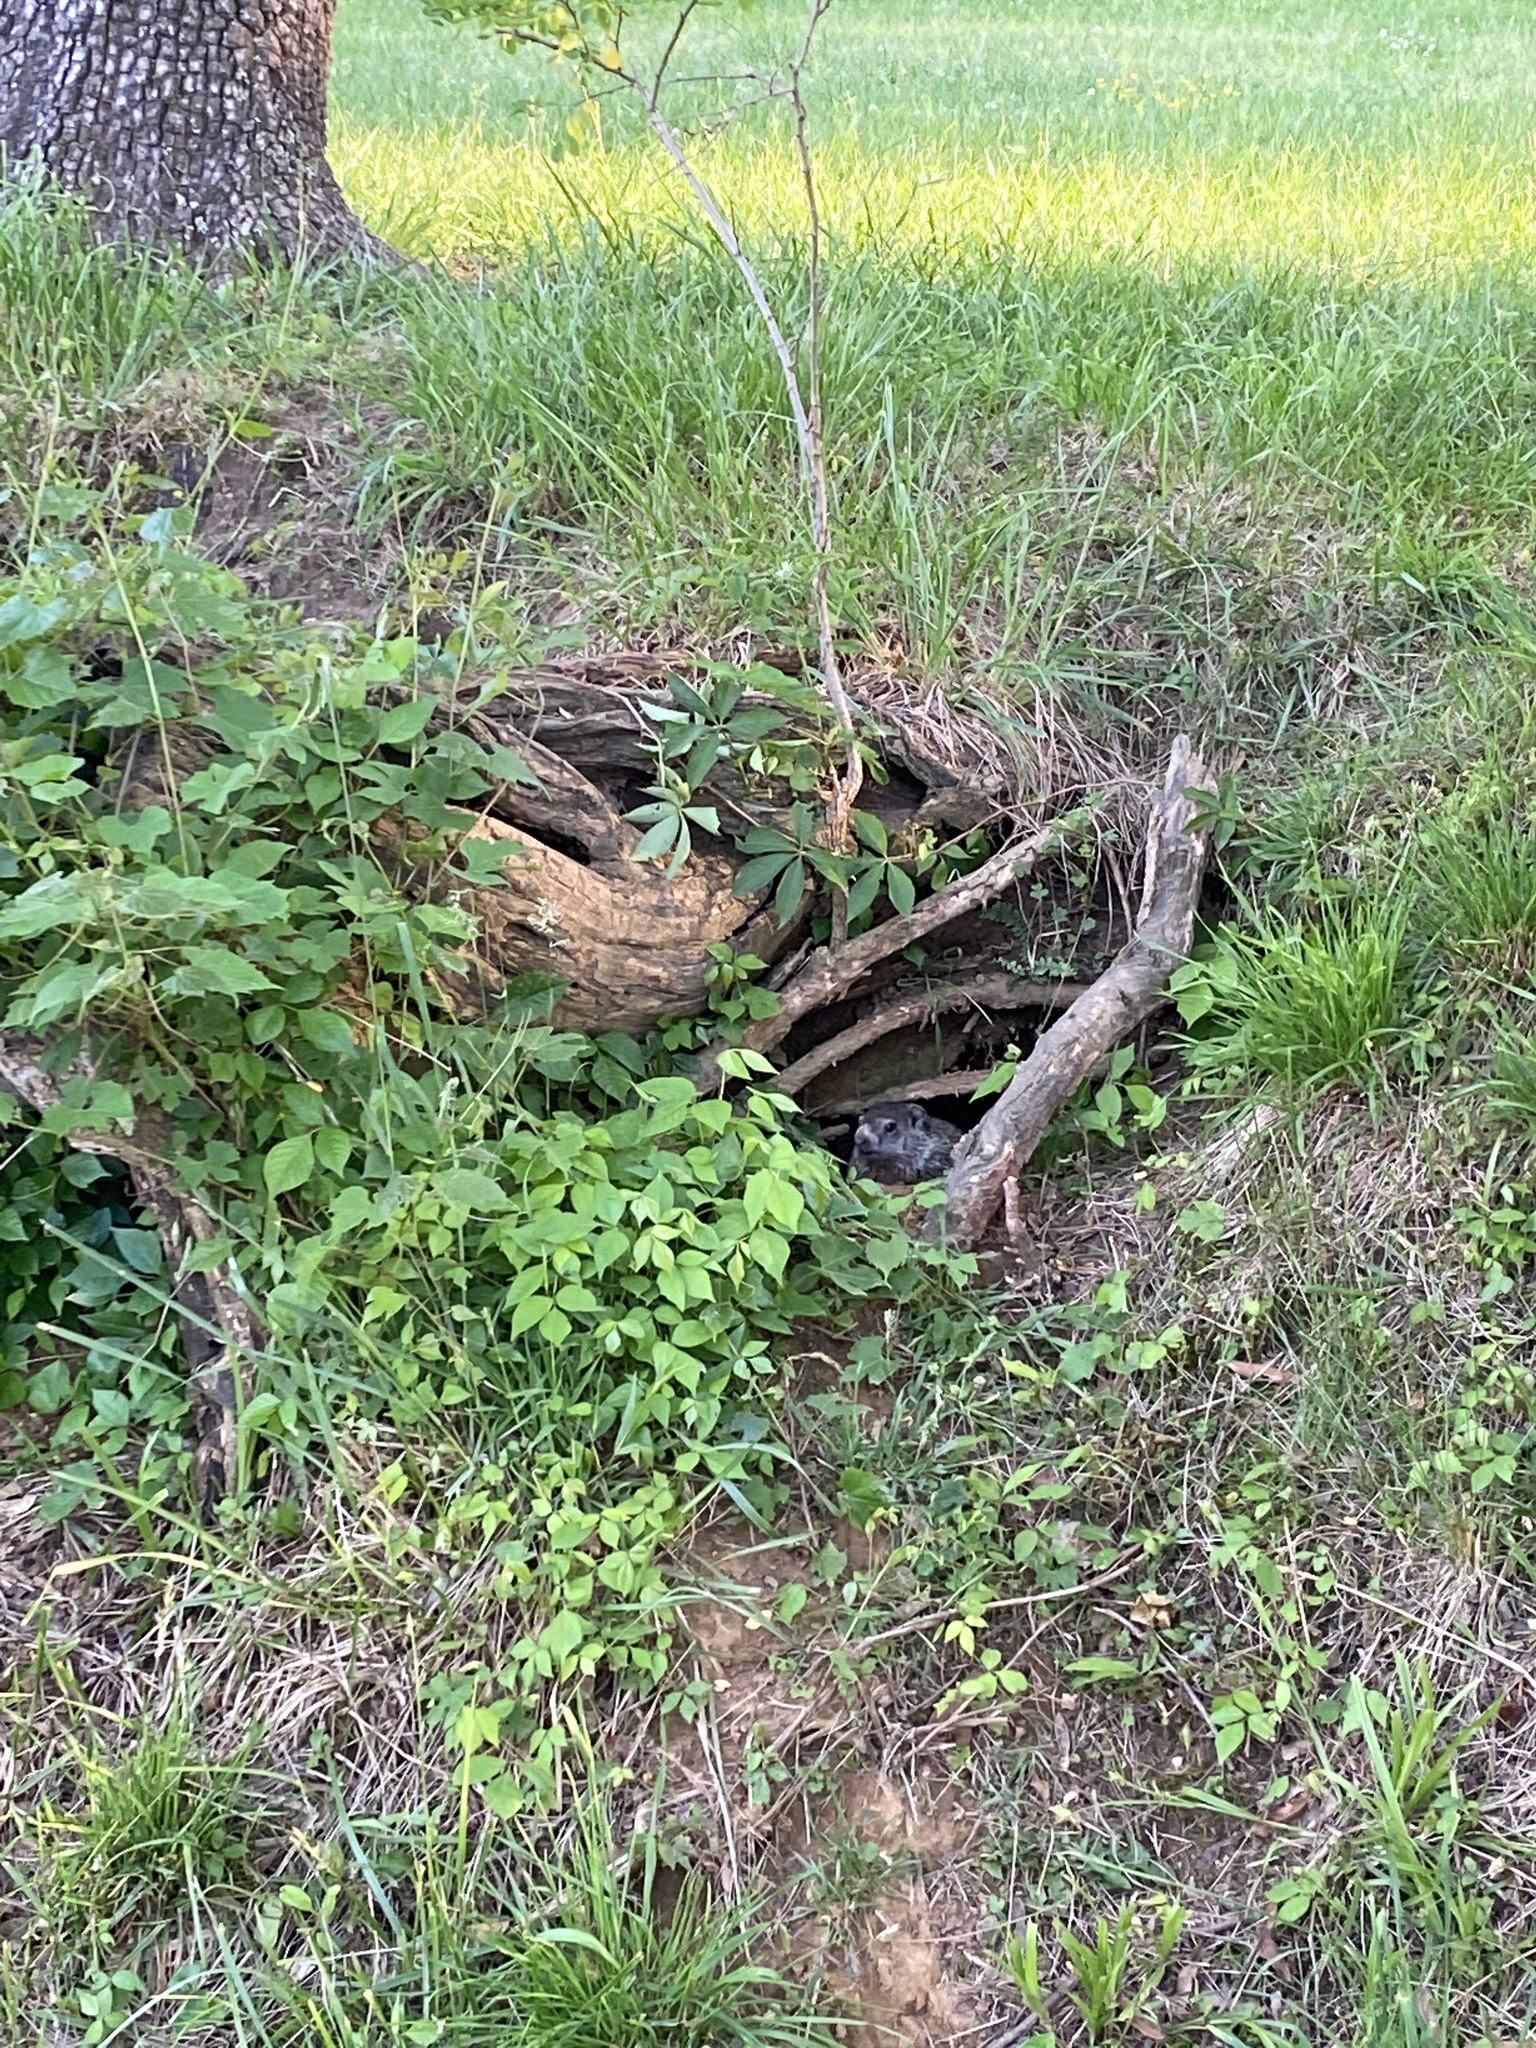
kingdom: Animalia
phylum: Chordata
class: Mammalia
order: Rodentia
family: Sciuridae
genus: Marmota
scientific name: Marmota monax
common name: Groundhog
